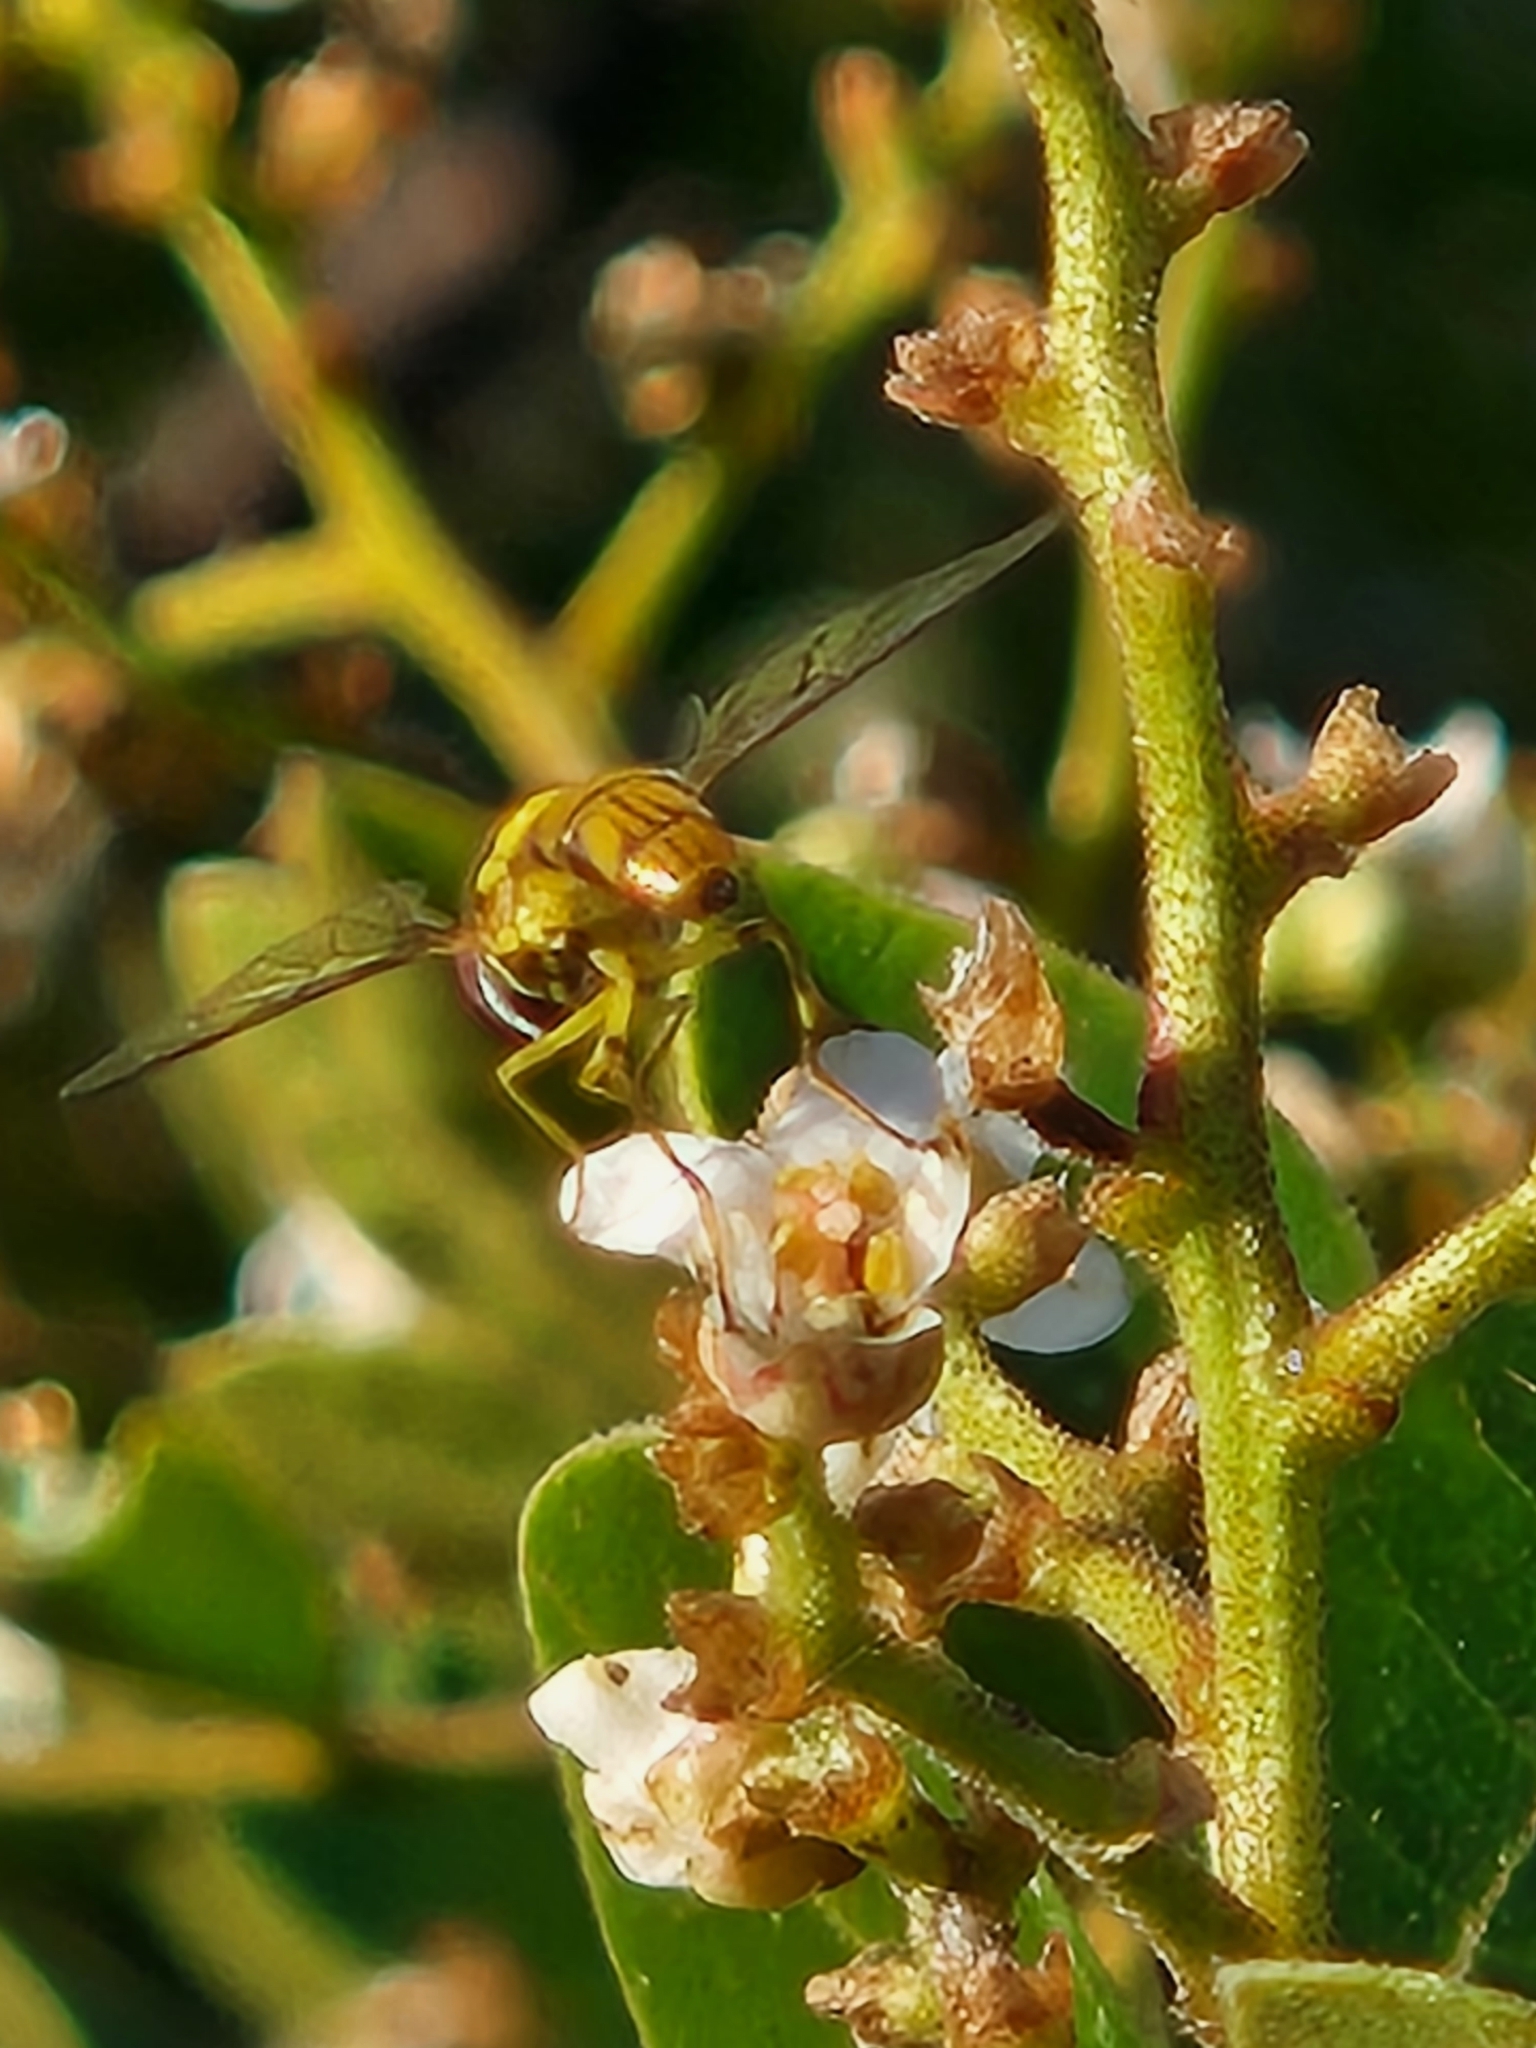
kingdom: Animalia
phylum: Arthropoda
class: Insecta
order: Diptera
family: Syrphidae
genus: Allograpta
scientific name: Allograpta obliqua
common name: Common oblique syrphid
